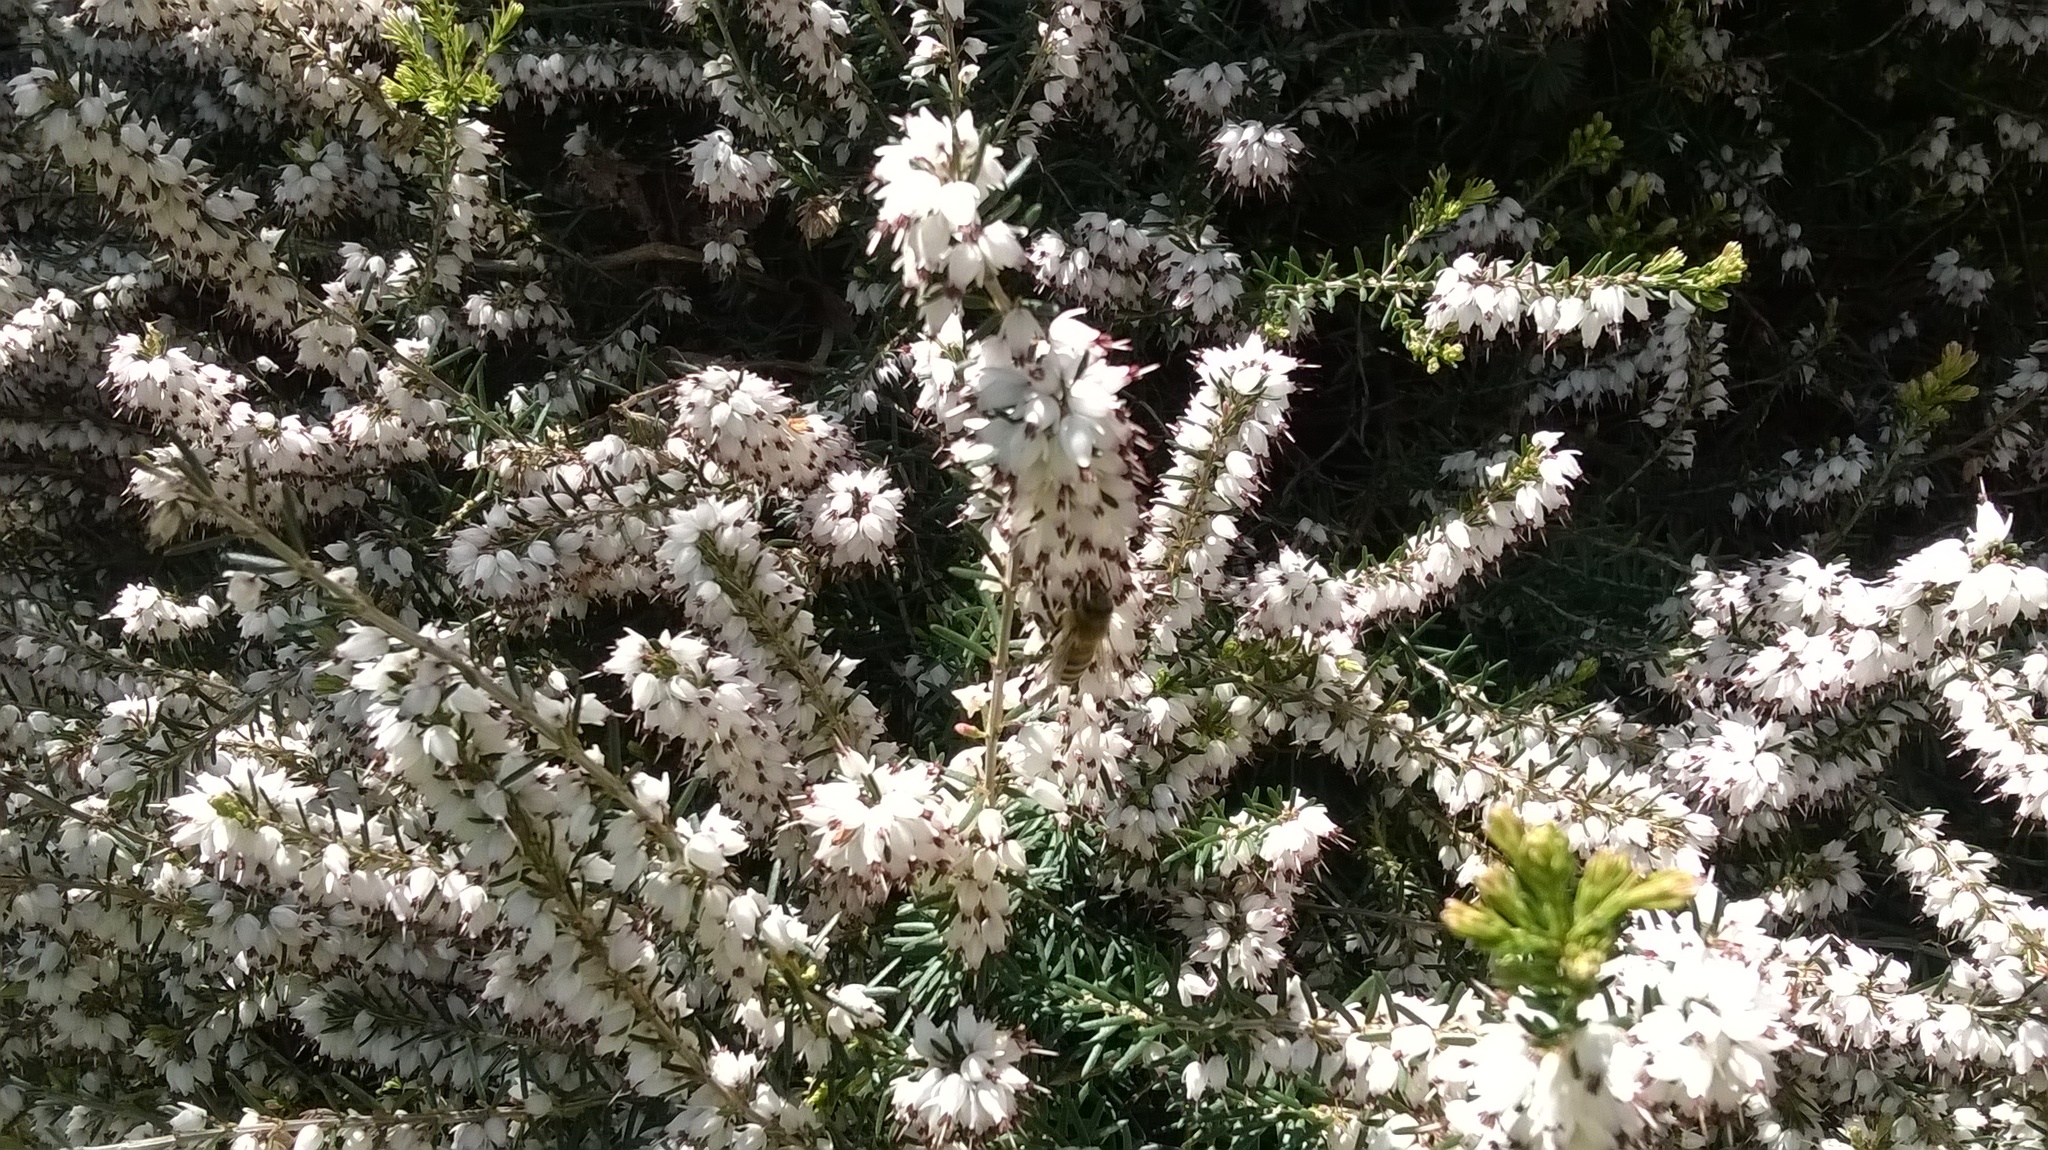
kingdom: Animalia
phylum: Arthropoda
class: Insecta
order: Hymenoptera
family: Apidae
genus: Apis
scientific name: Apis mellifera
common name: Honey bee
